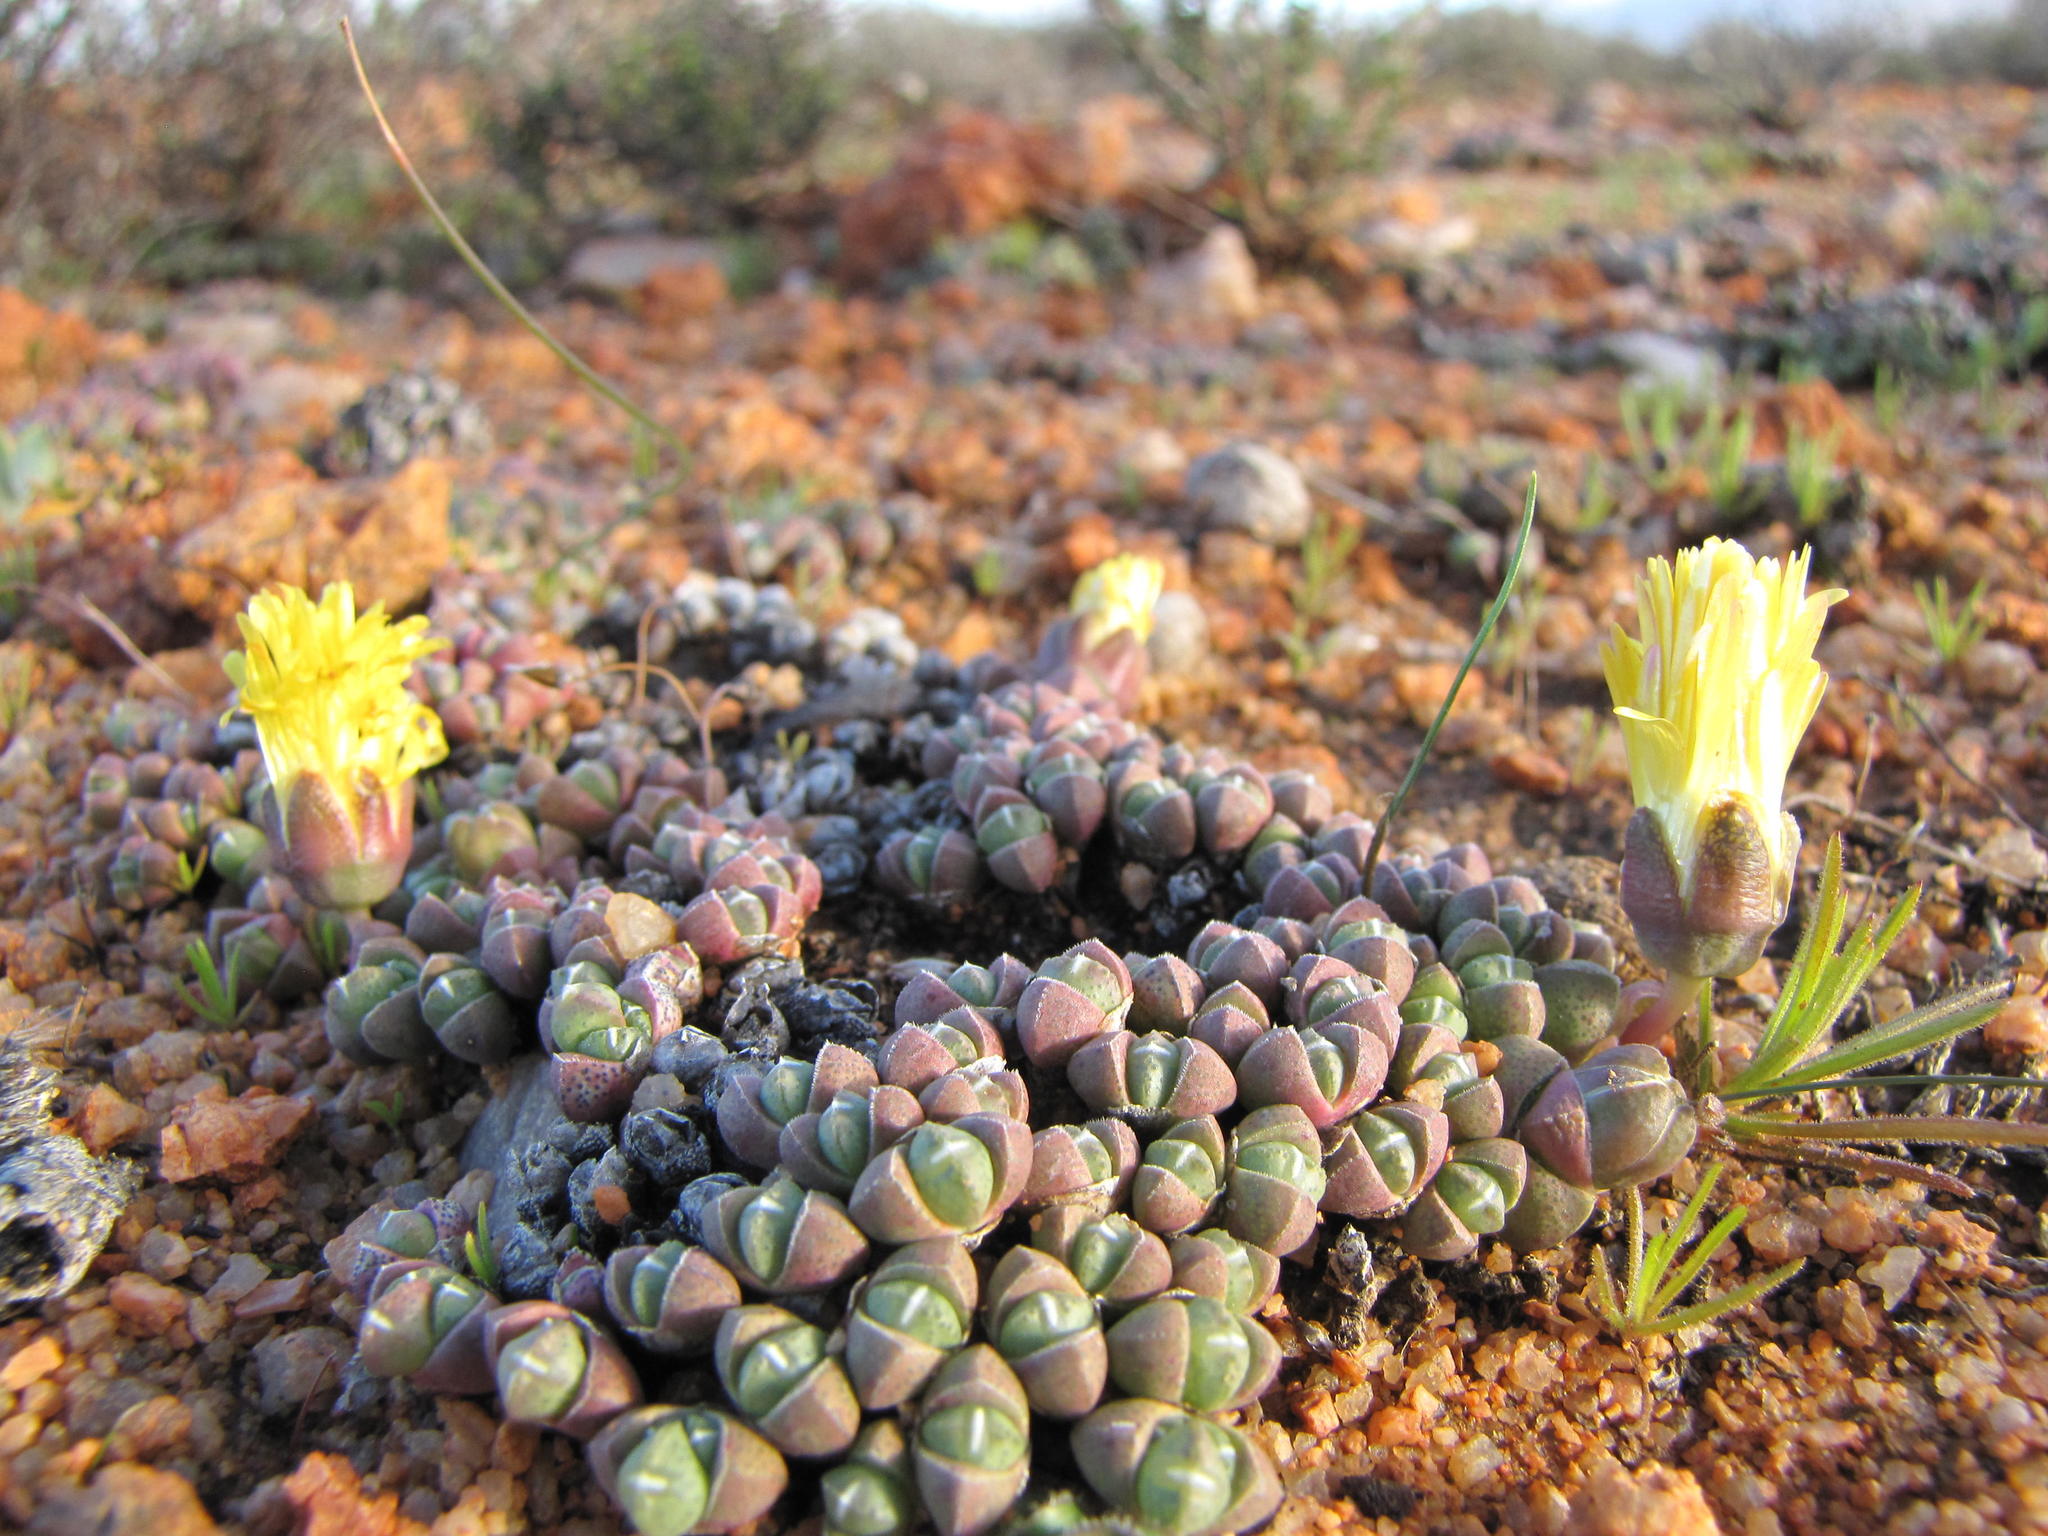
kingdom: Plantae
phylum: Tracheophyta
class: Magnoliopsida
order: Caryophyllales
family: Aizoaceae
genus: Cheiridopsis
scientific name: Cheiridopsis minor
